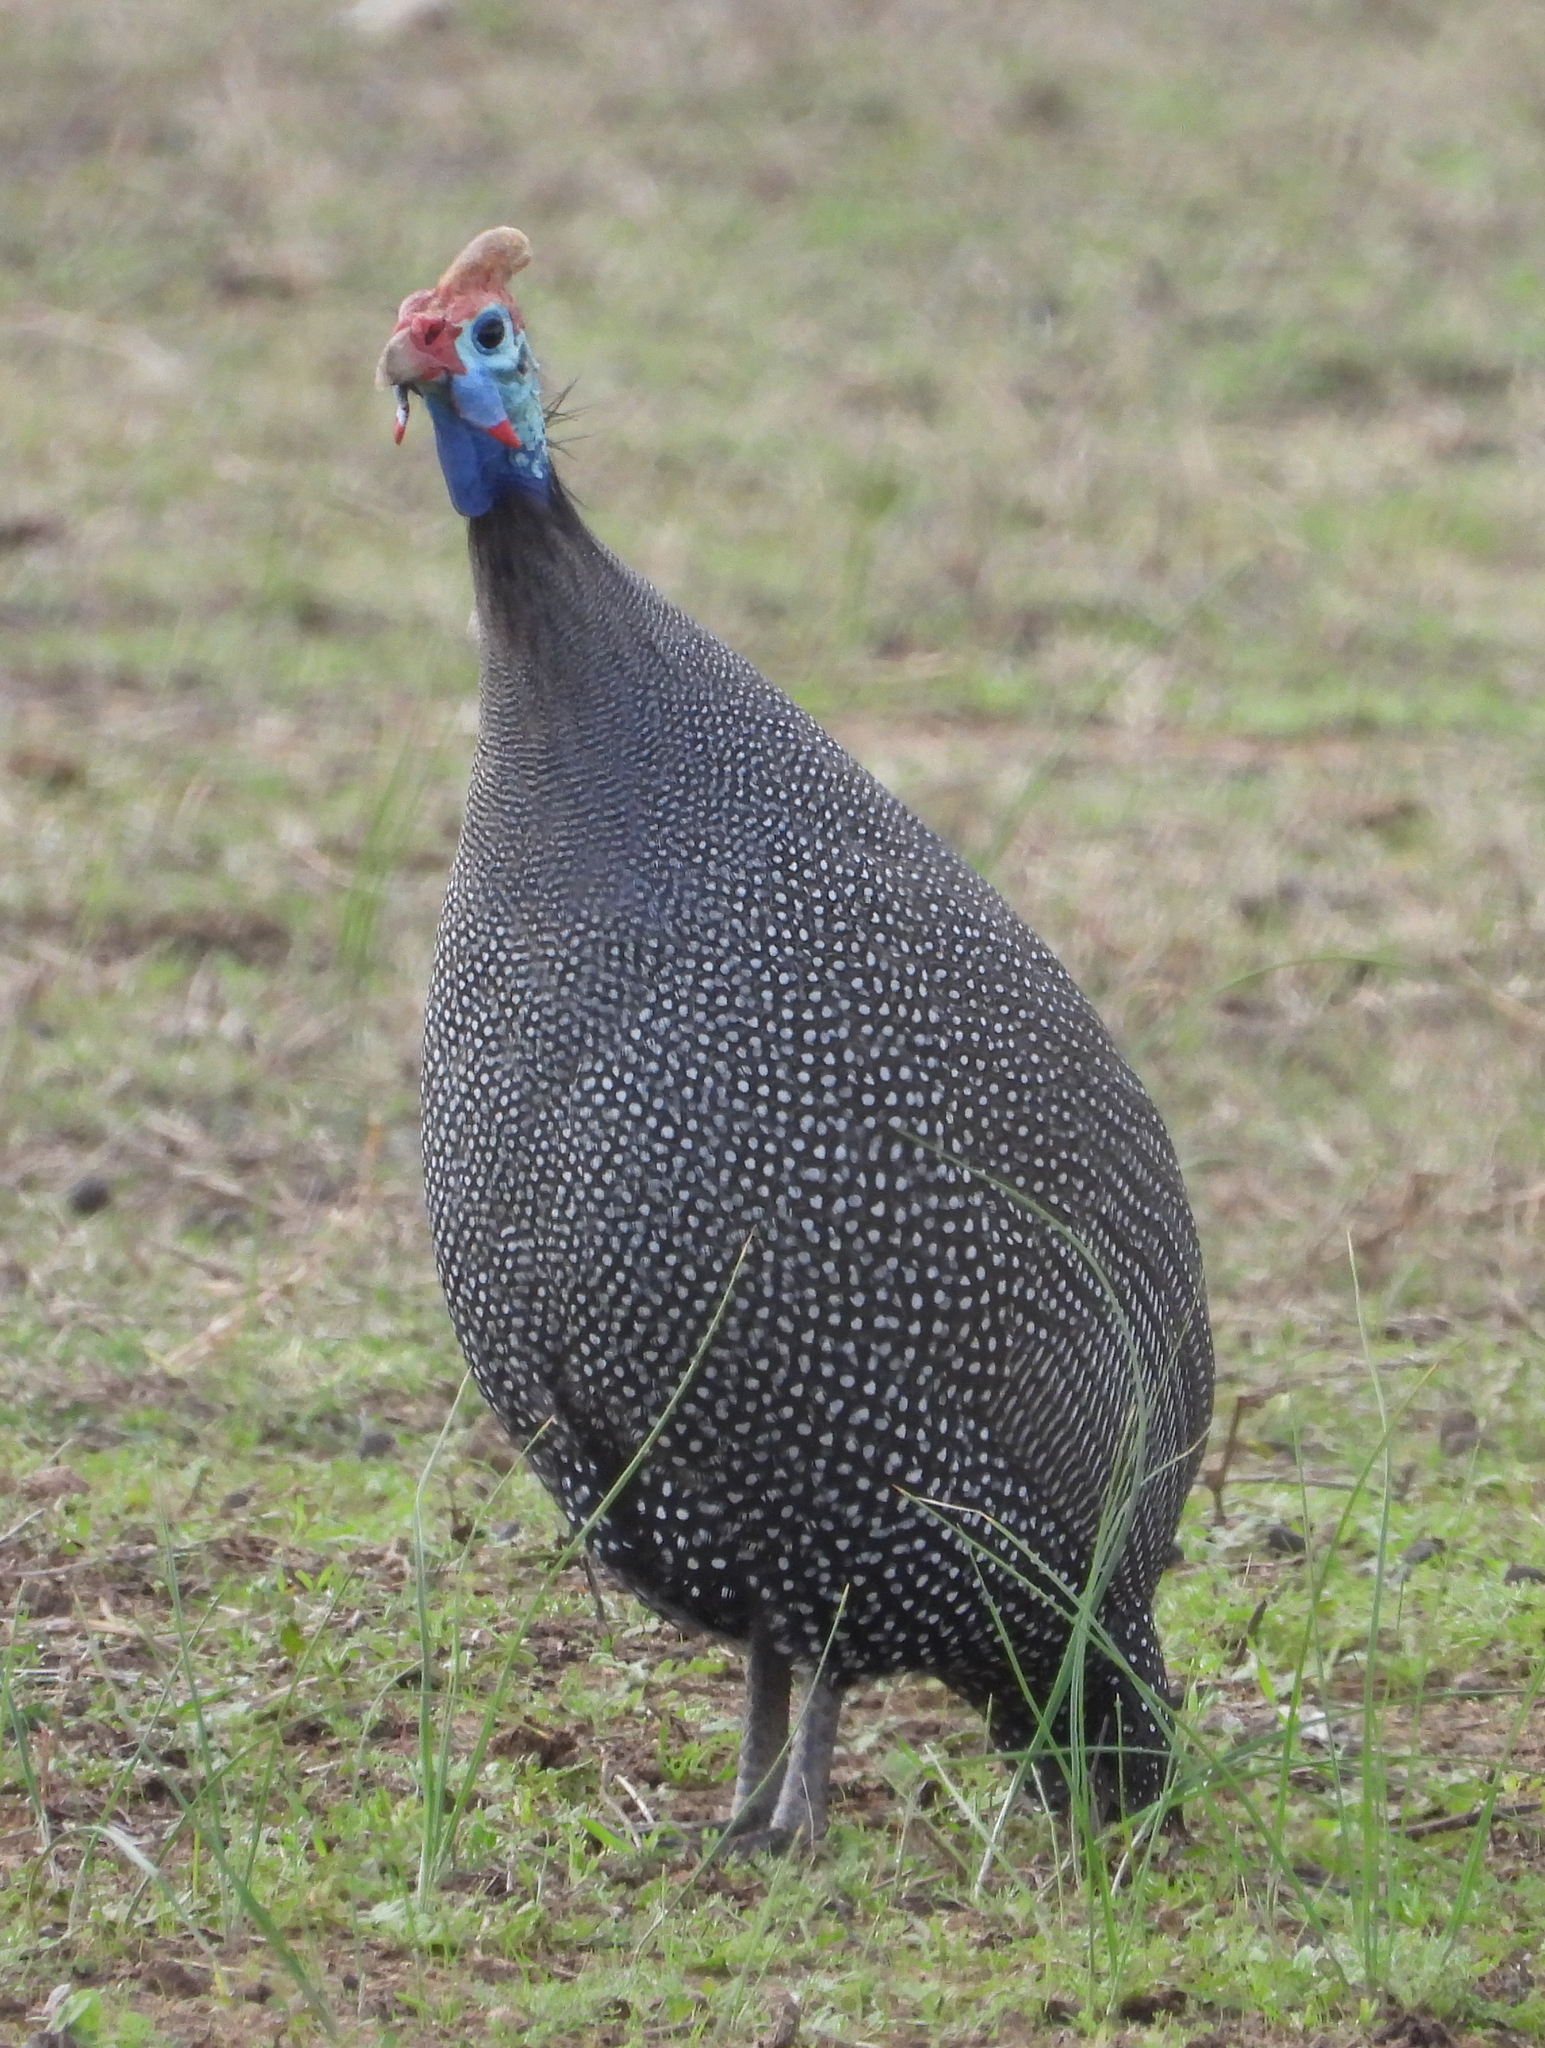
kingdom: Animalia
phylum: Chordata
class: Aves
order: Galliformes
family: Numididae
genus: Numida
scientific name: Numida meleagris
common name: Helmeted guineafowl
